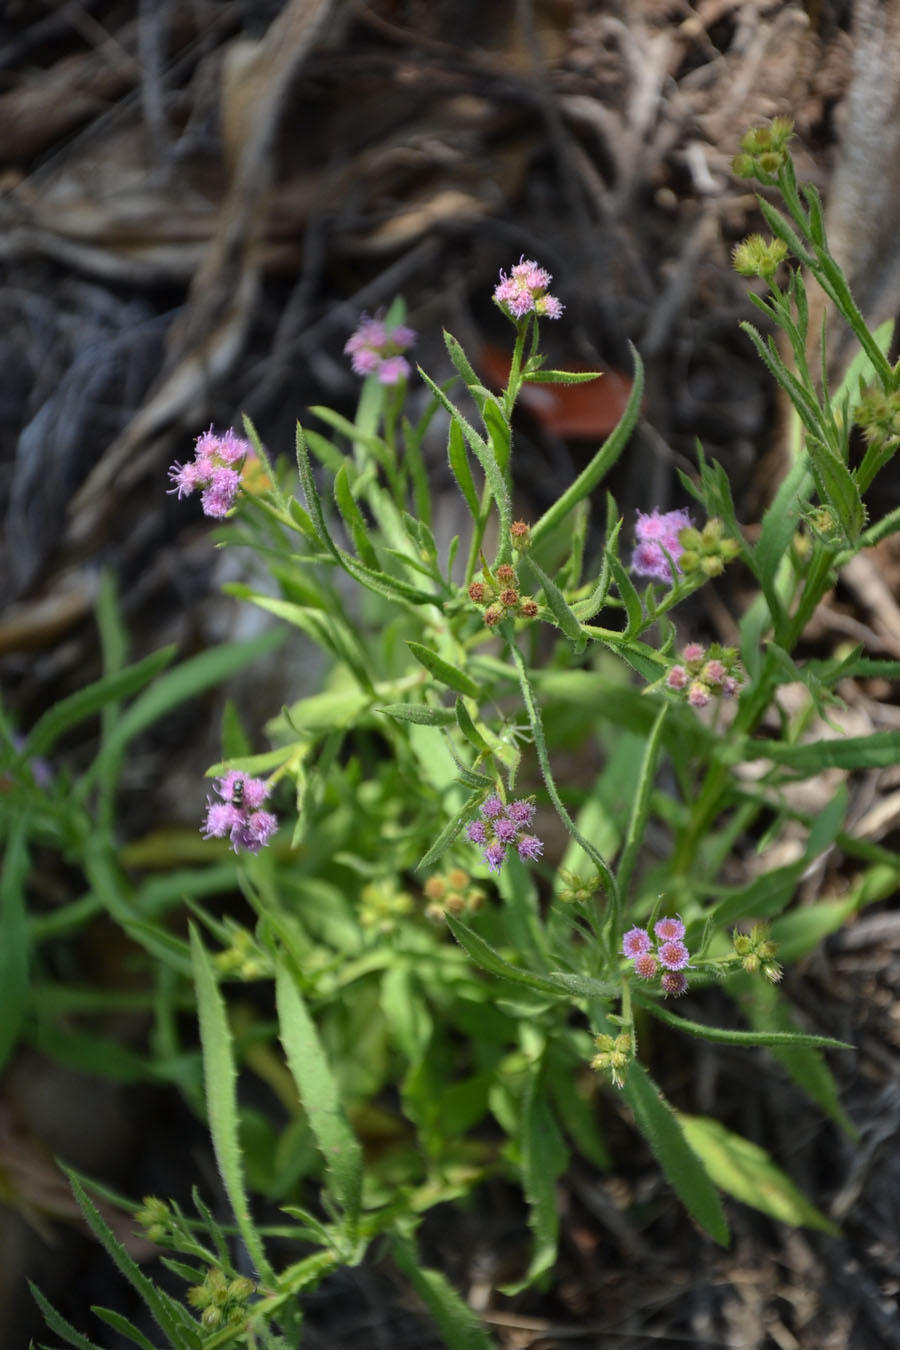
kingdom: Plantae
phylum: Tracheophyta
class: Magnoliopsida
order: Asterales
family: Asteraceae
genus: Litogyne
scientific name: Litogyne gariepina
